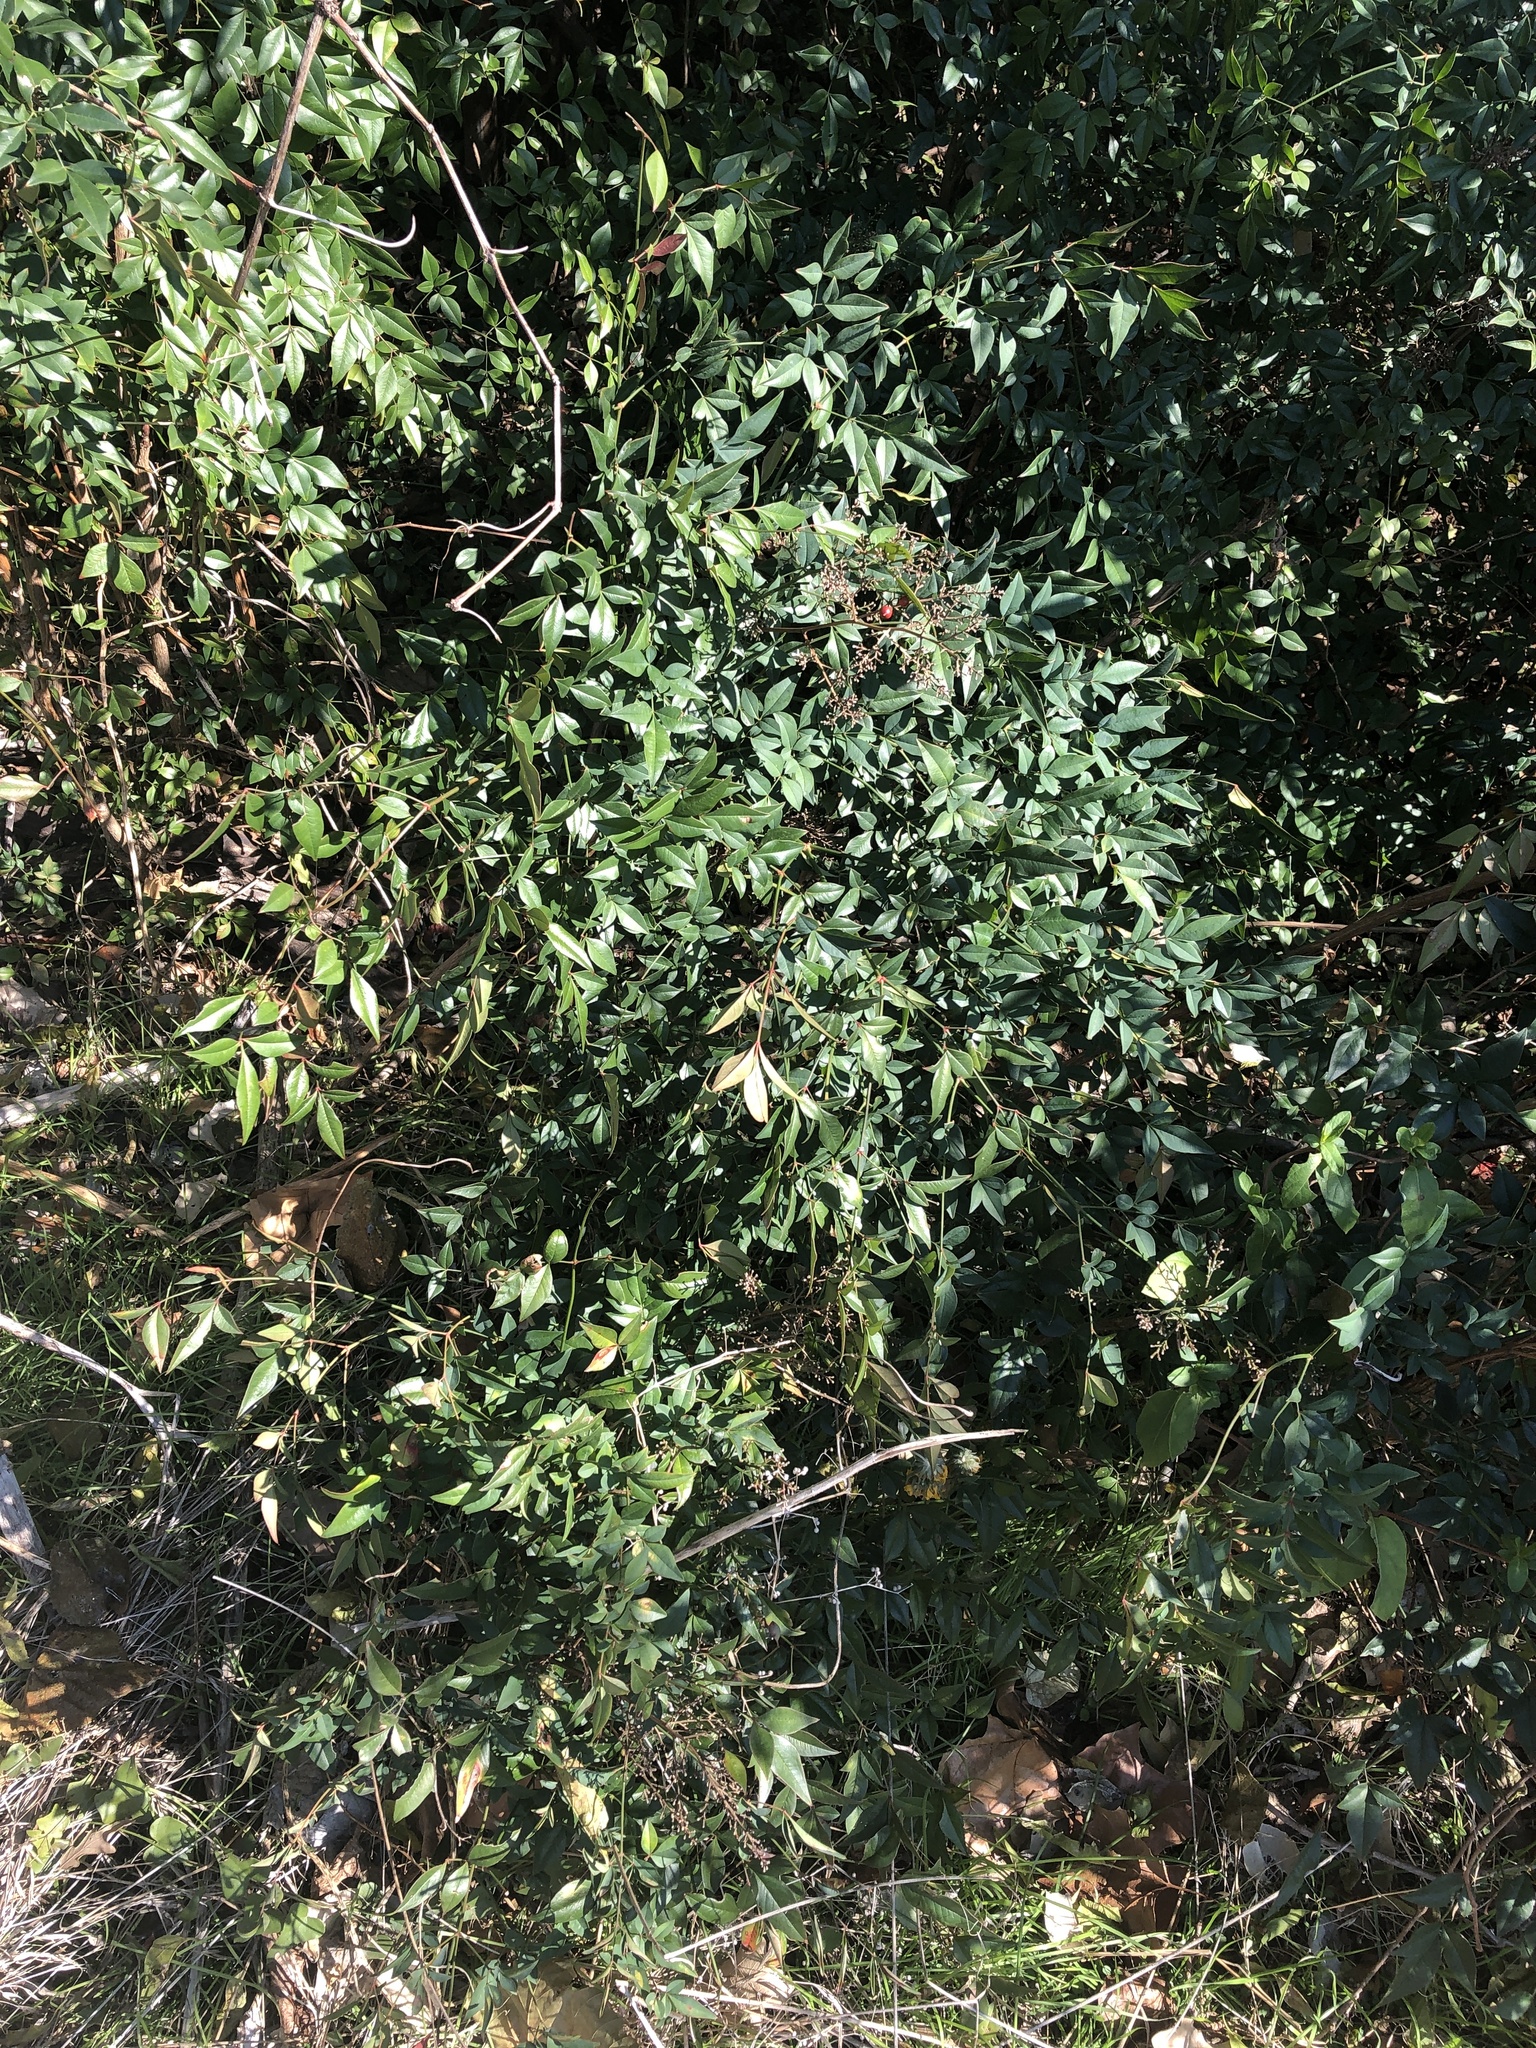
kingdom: Plantae
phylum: Tracheophyta
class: Magnoliopsida
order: Ranunculales
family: Berberidaceae
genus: Nandina
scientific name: Nandina domestica
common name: Sacred bamboo
